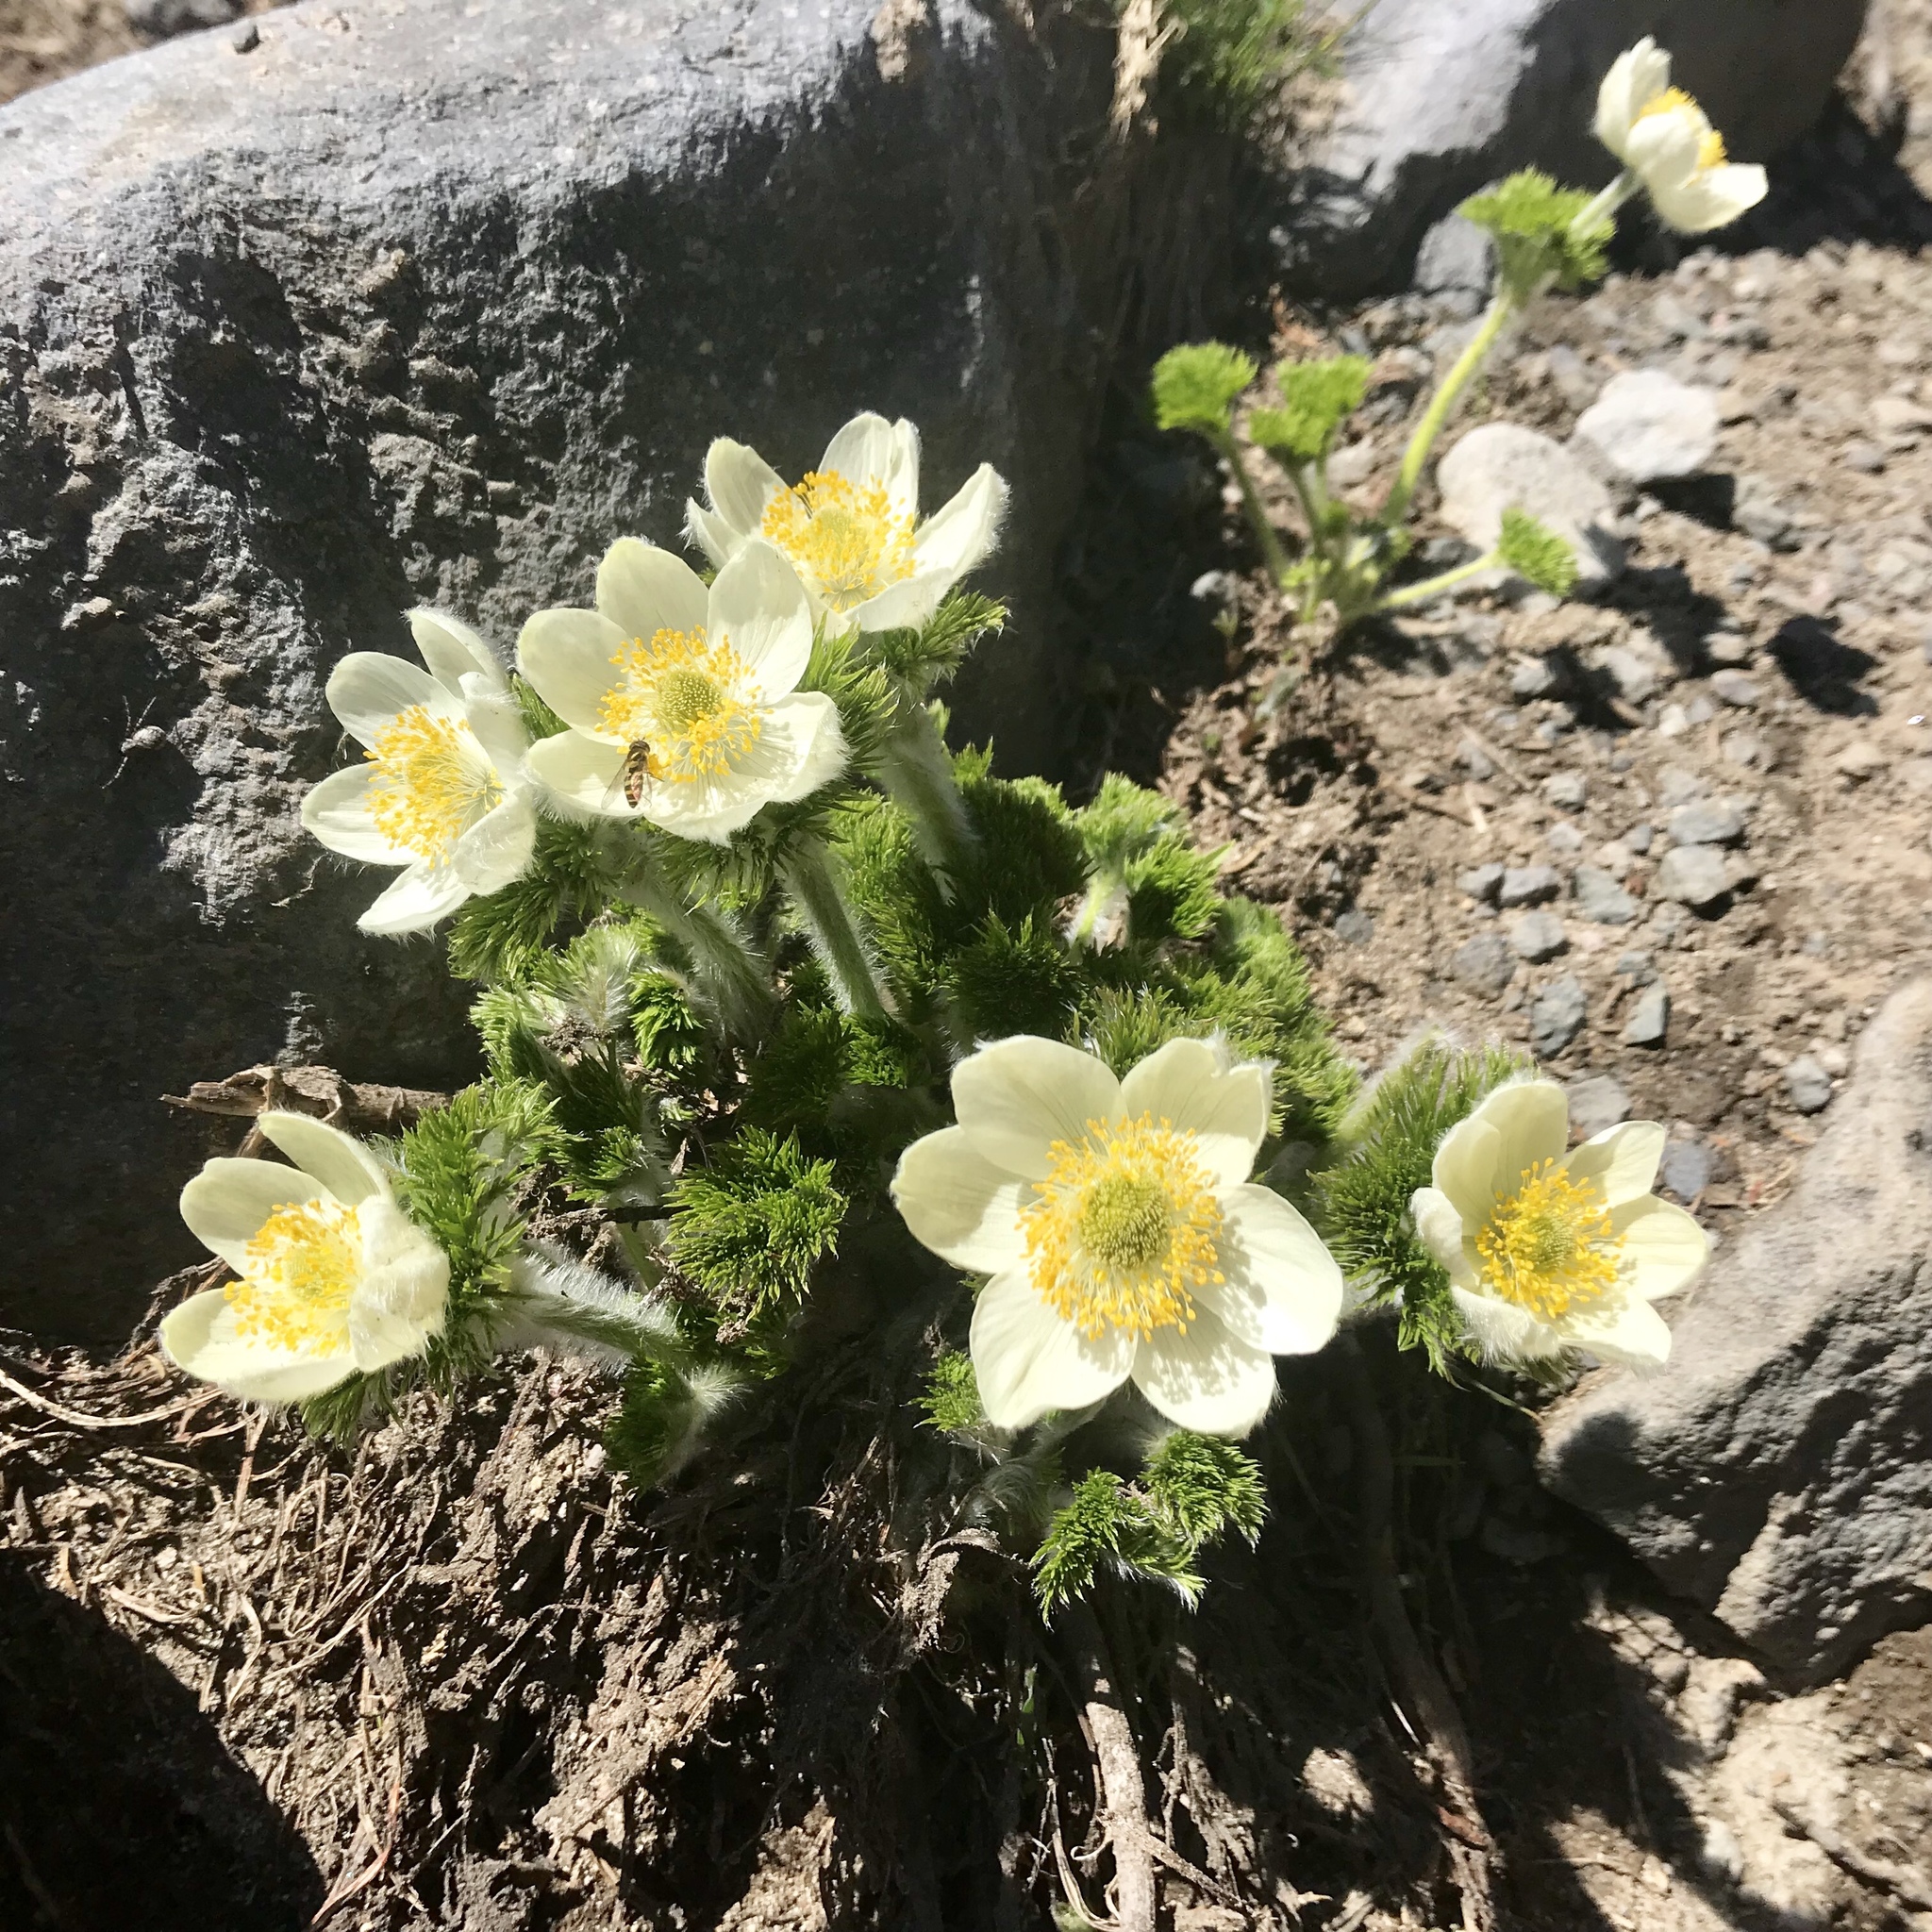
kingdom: Plantae
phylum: Tracheophyta
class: Magnoliopsida
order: Ranunculales
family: Ranunculaceae
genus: Pulsatilla
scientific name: Pulsatilla occidentalis
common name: Mountain pasqueflower
